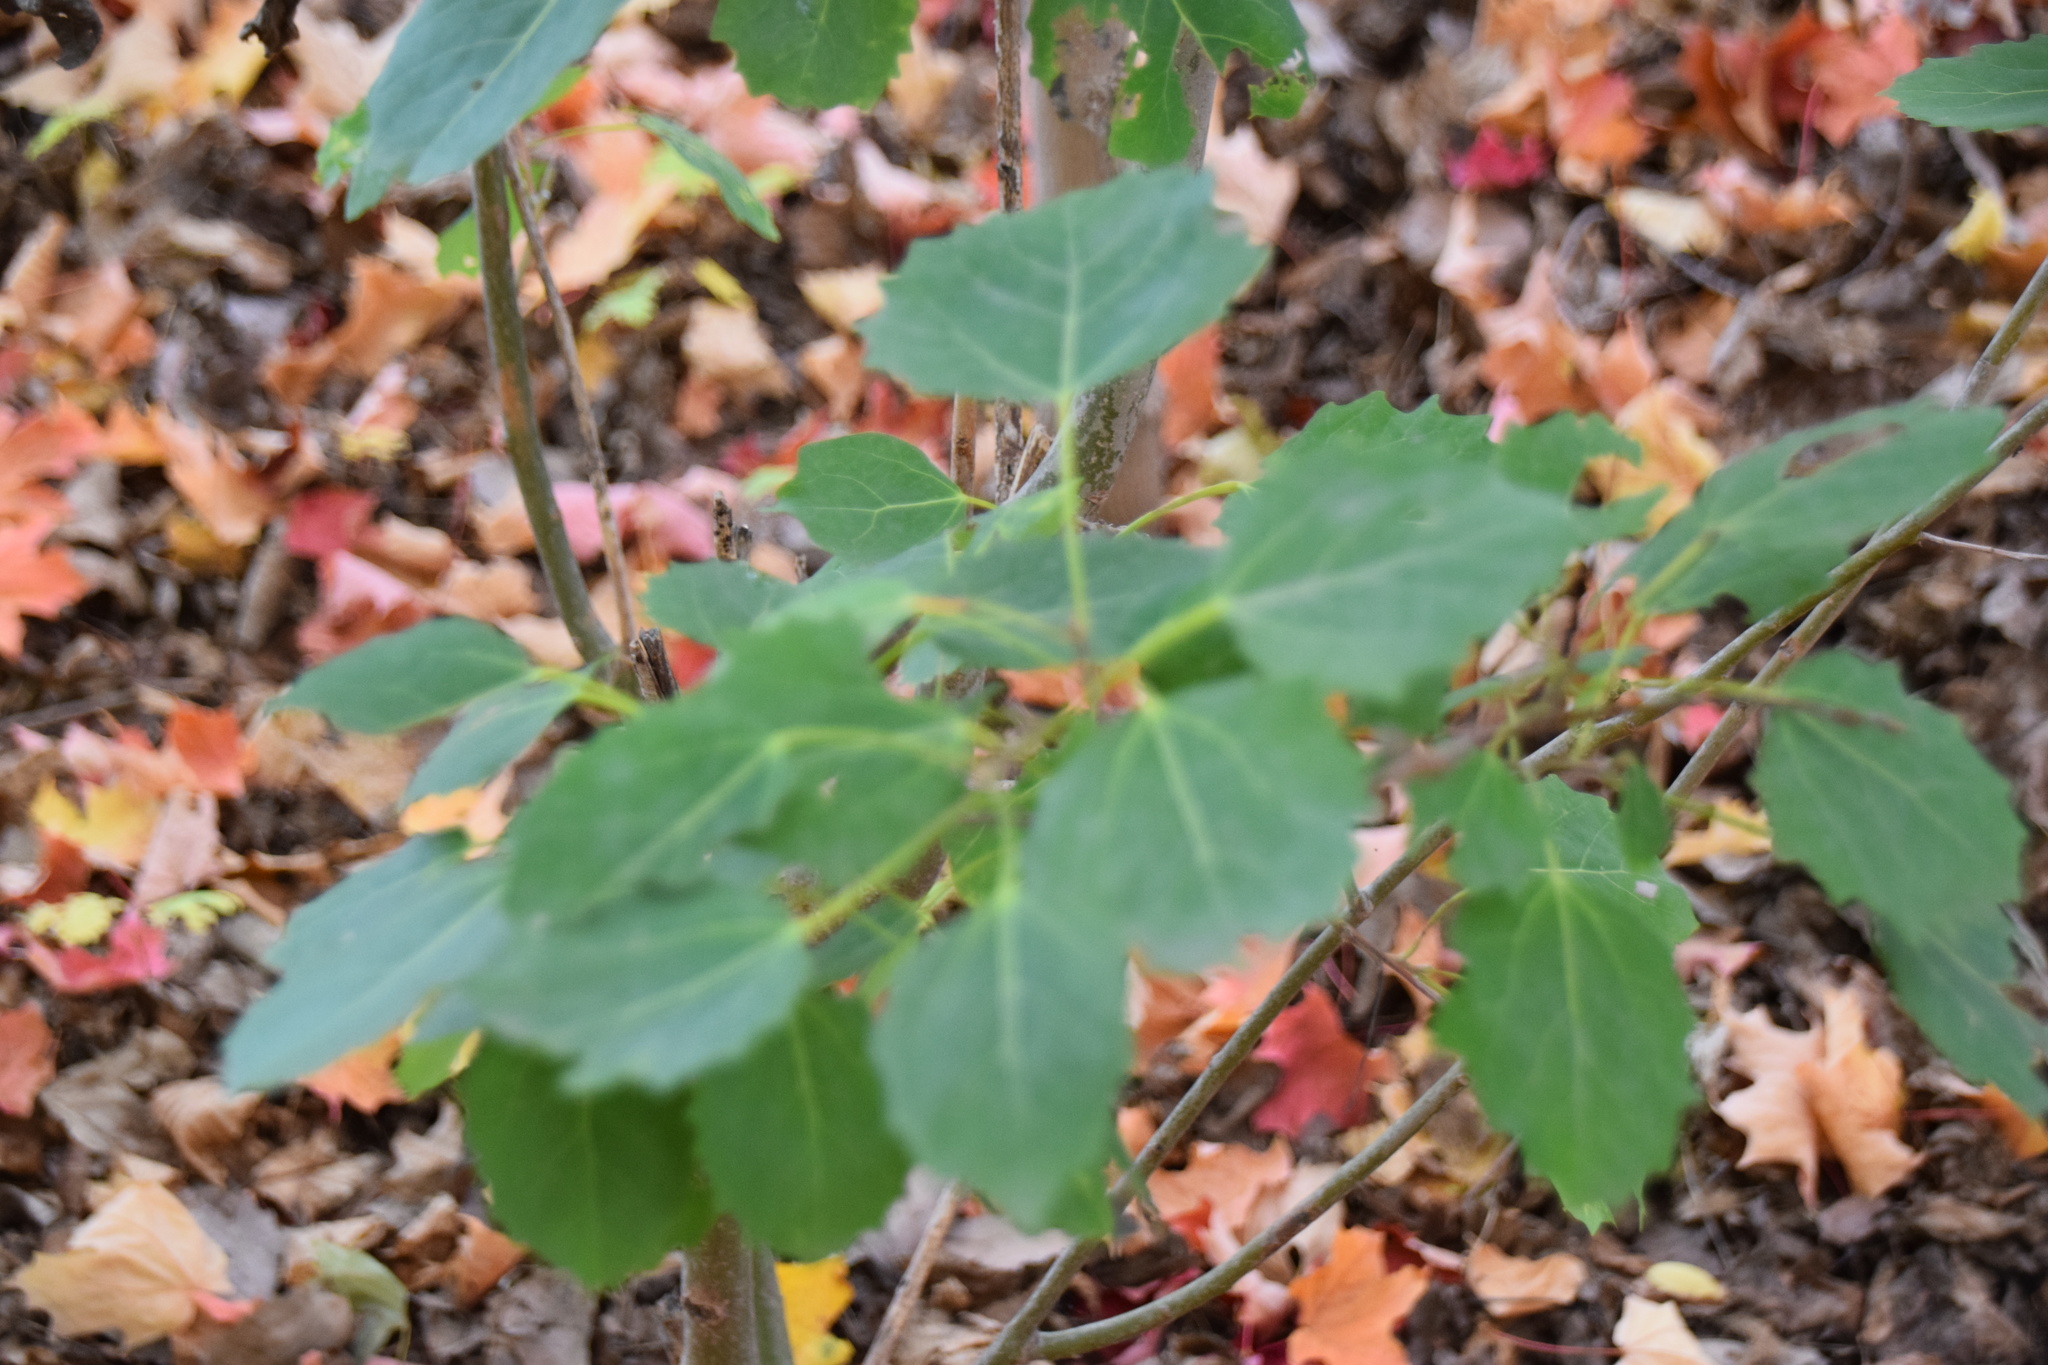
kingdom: Plantae
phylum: Tracheophyta
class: Magnoliopsida
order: Malpighiales
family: Salicaceae
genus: Populus
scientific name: Populus grandidentata
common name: Bigtooth aspen
